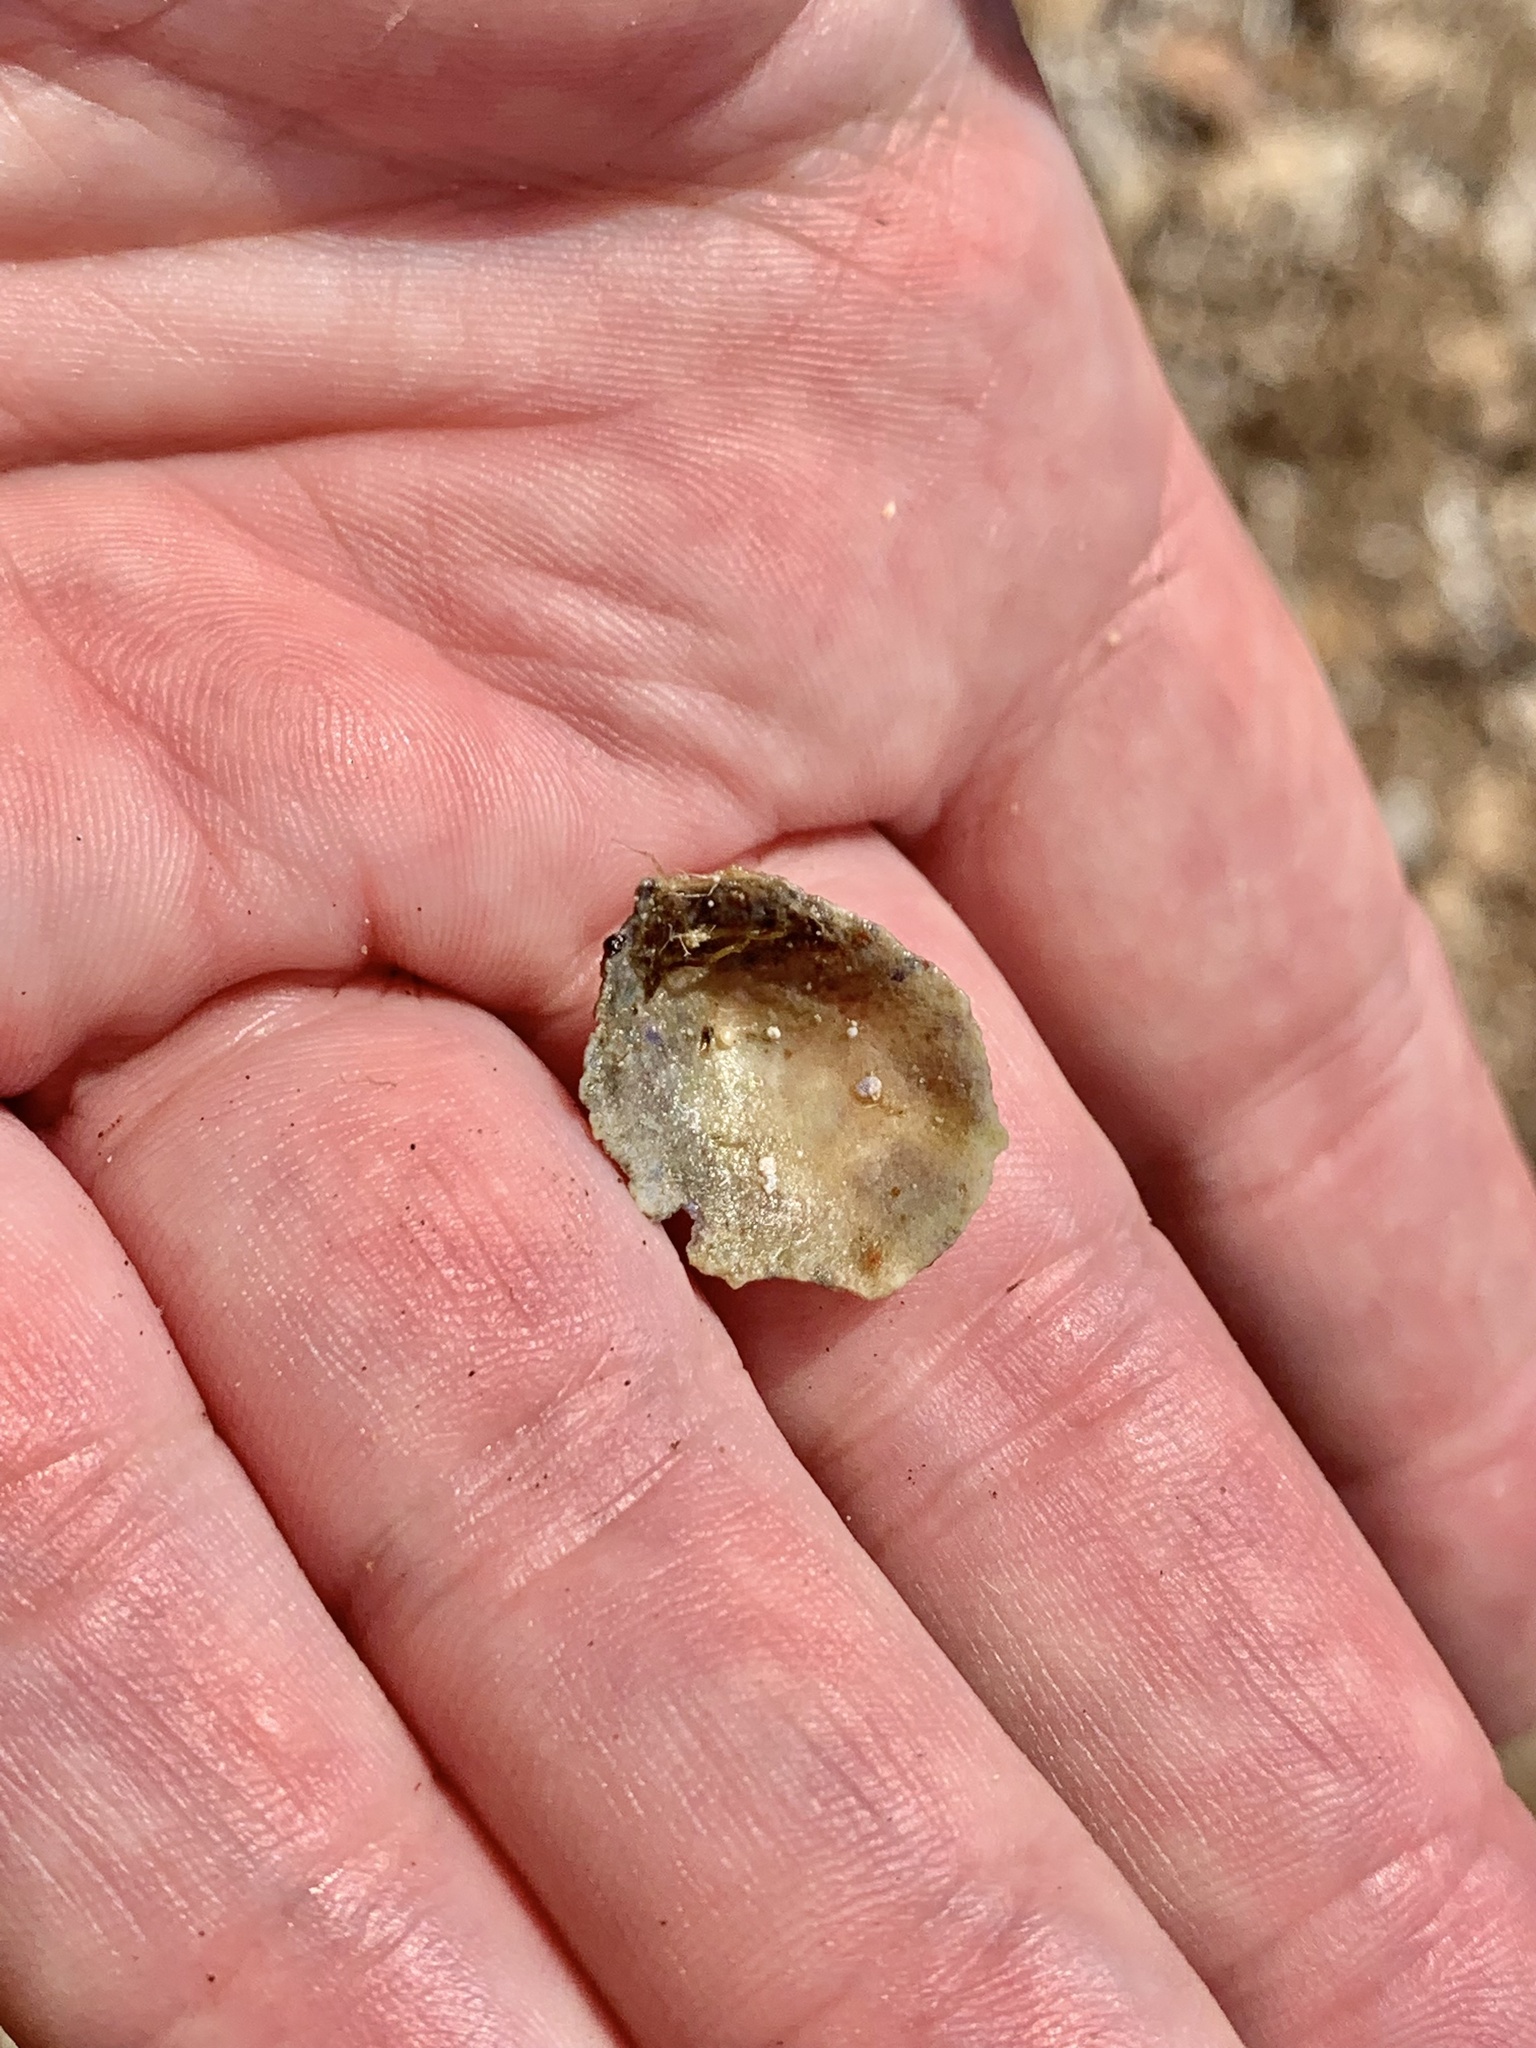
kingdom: Animalia
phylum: Mollusca
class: Gastropoda
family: Patellidae
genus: Patella
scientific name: Patella ulyssiponensis
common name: China limpet
